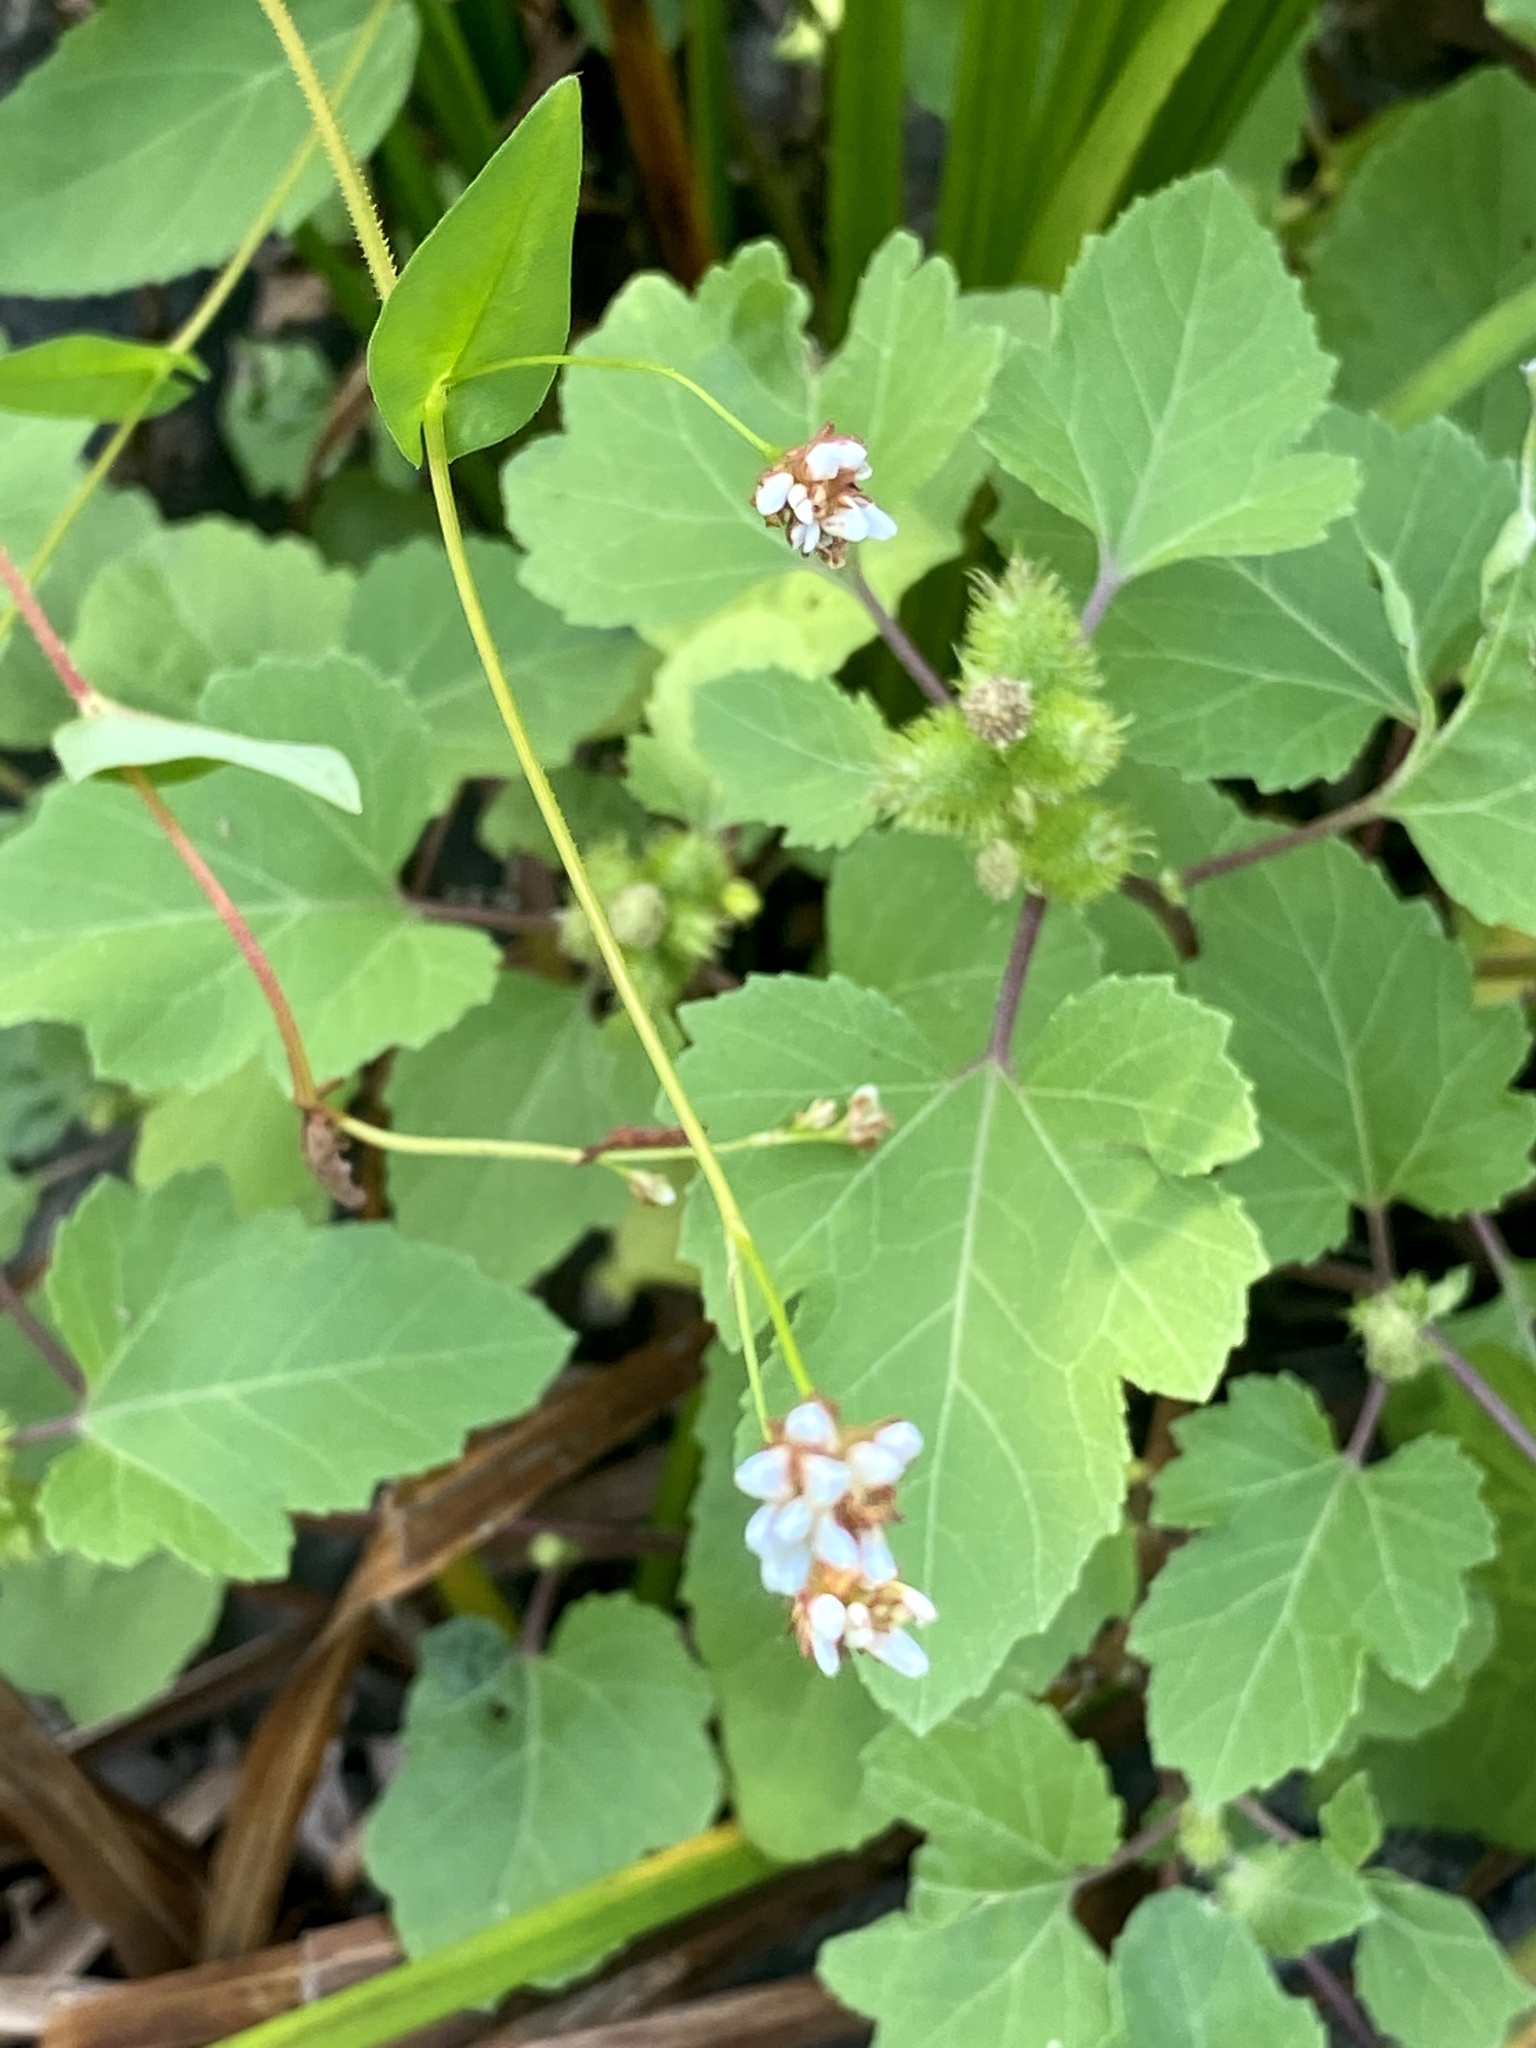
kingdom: Plantae
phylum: Tracheophyta
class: Magnoliopsida
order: Caryophyllales
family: Polygonaceae
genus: Persicaria
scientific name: Persicaria sagittata
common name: American tearthumb
